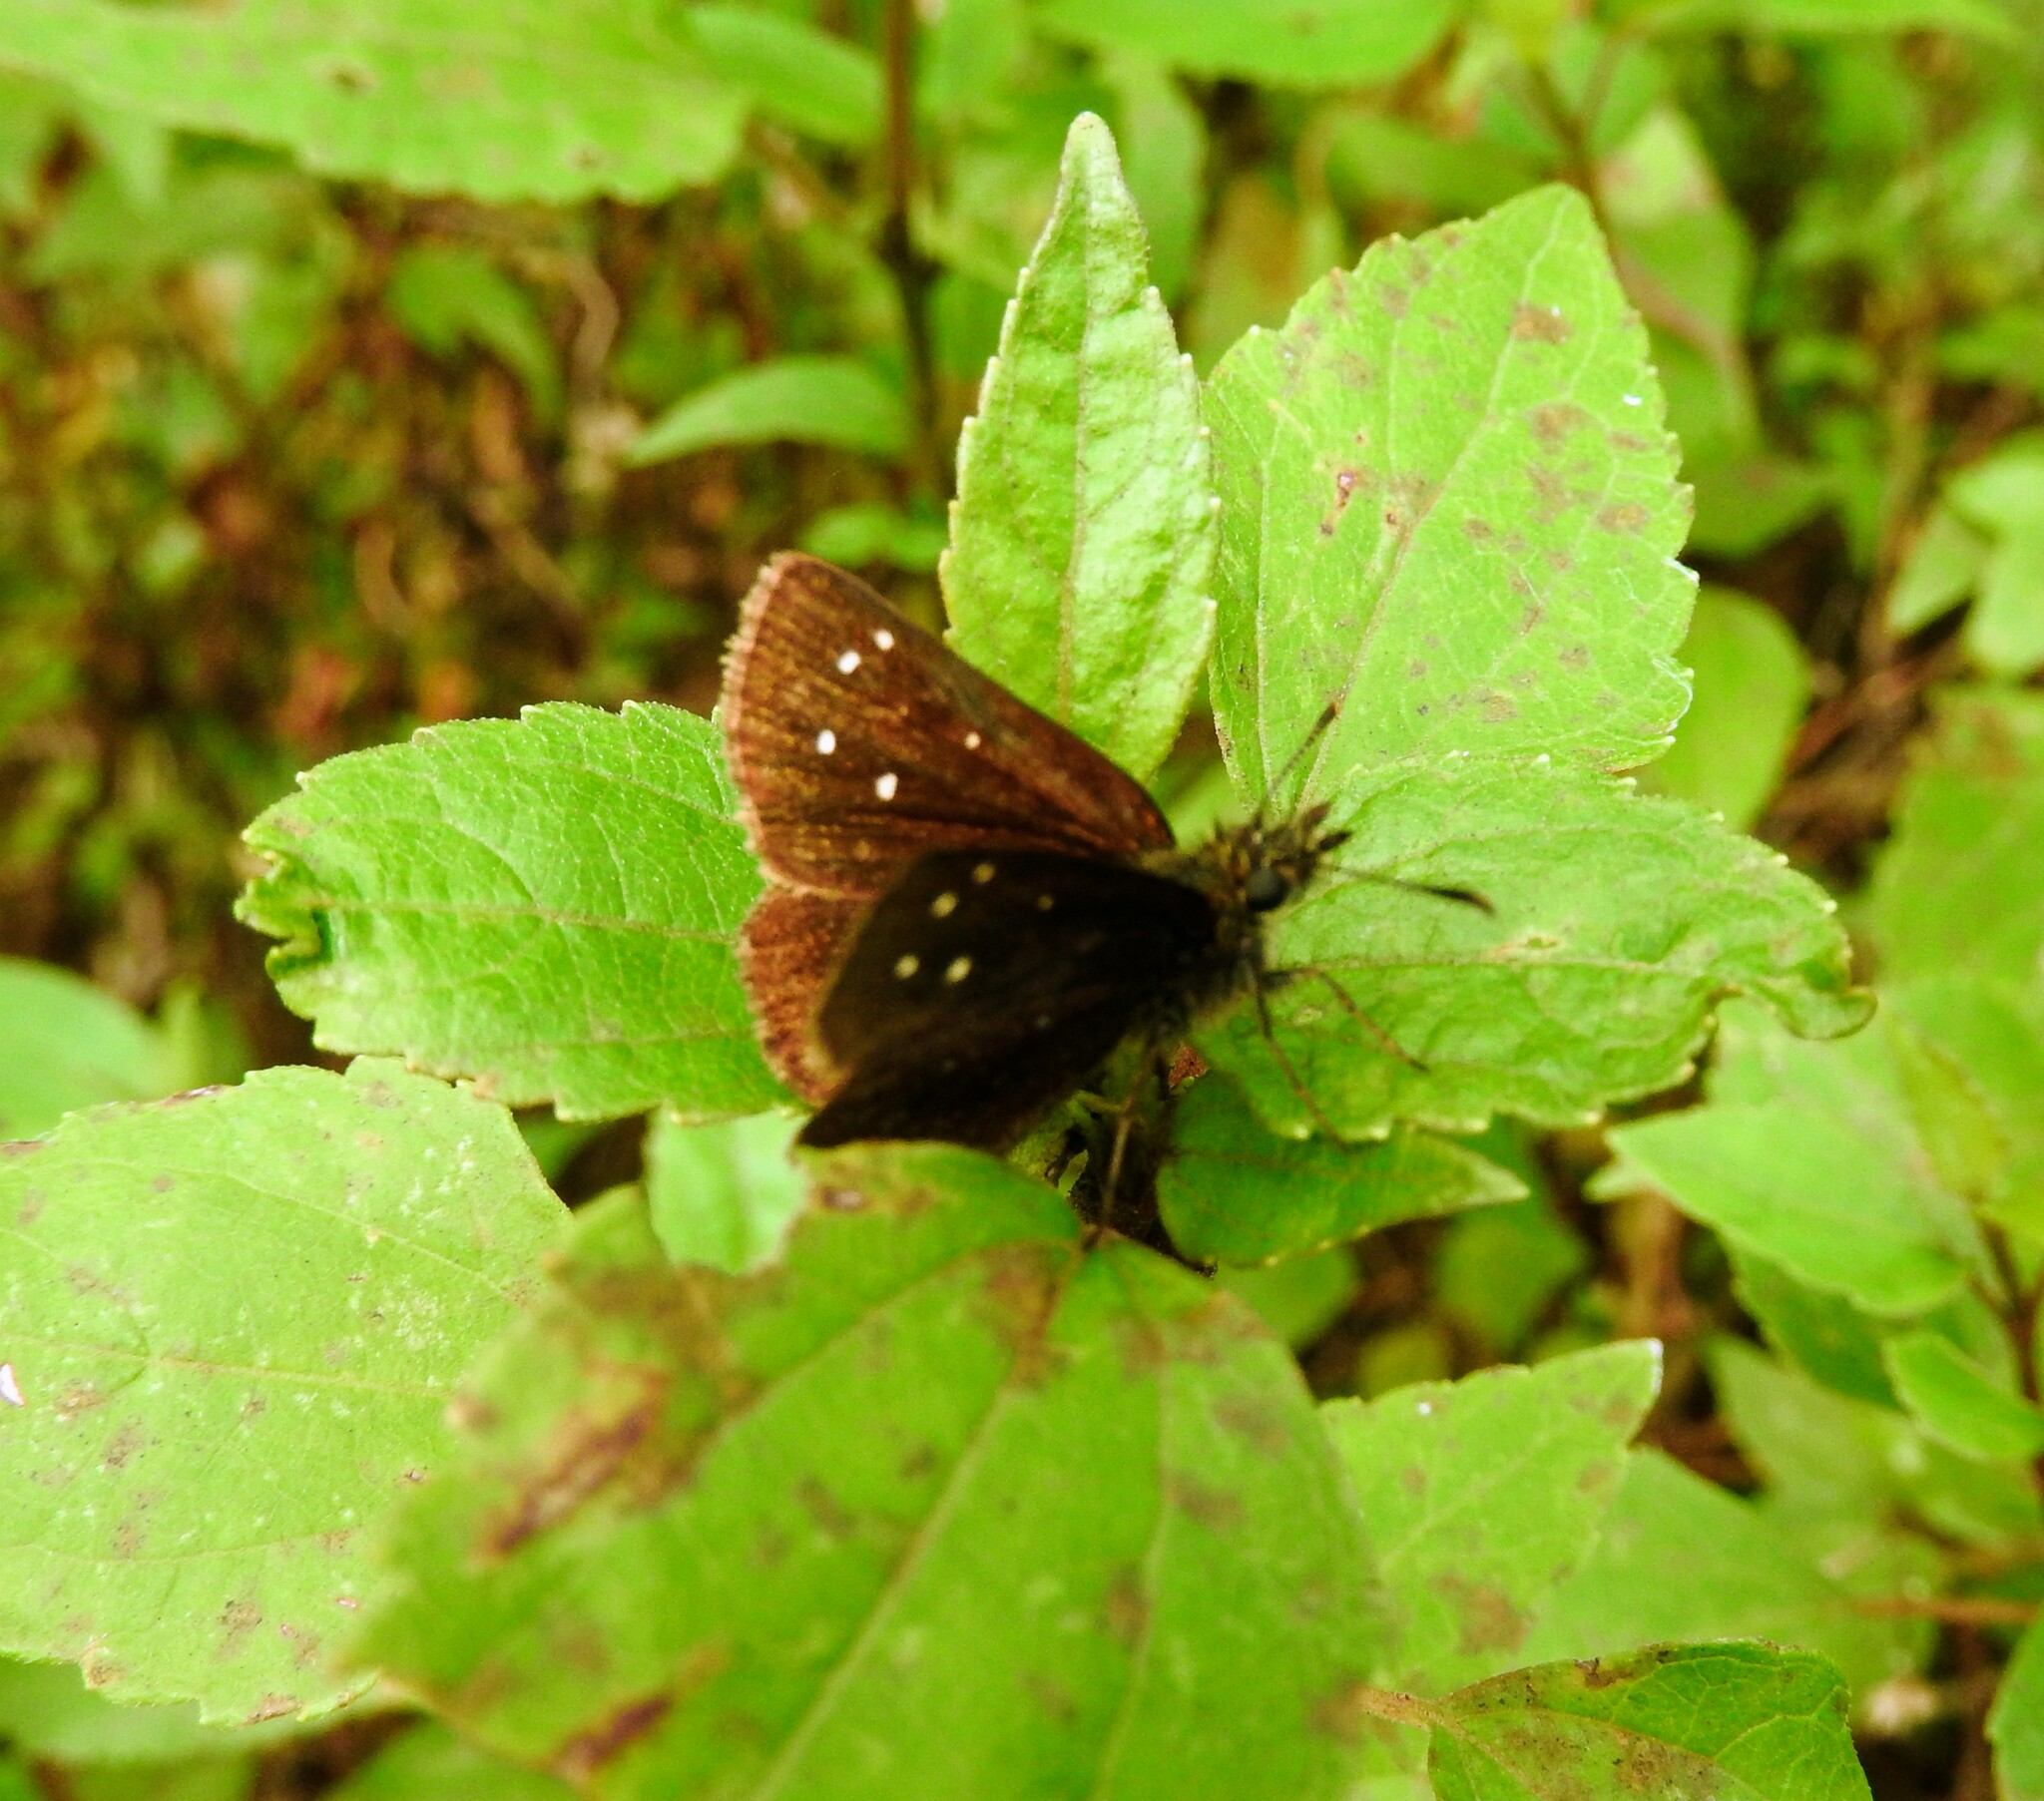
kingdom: Animalia
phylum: Arthropoda
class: Insecta
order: Lepidoptera
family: Hesperiidae
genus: Piruna
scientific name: Piruna polingii
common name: Four-spotted skipperling
